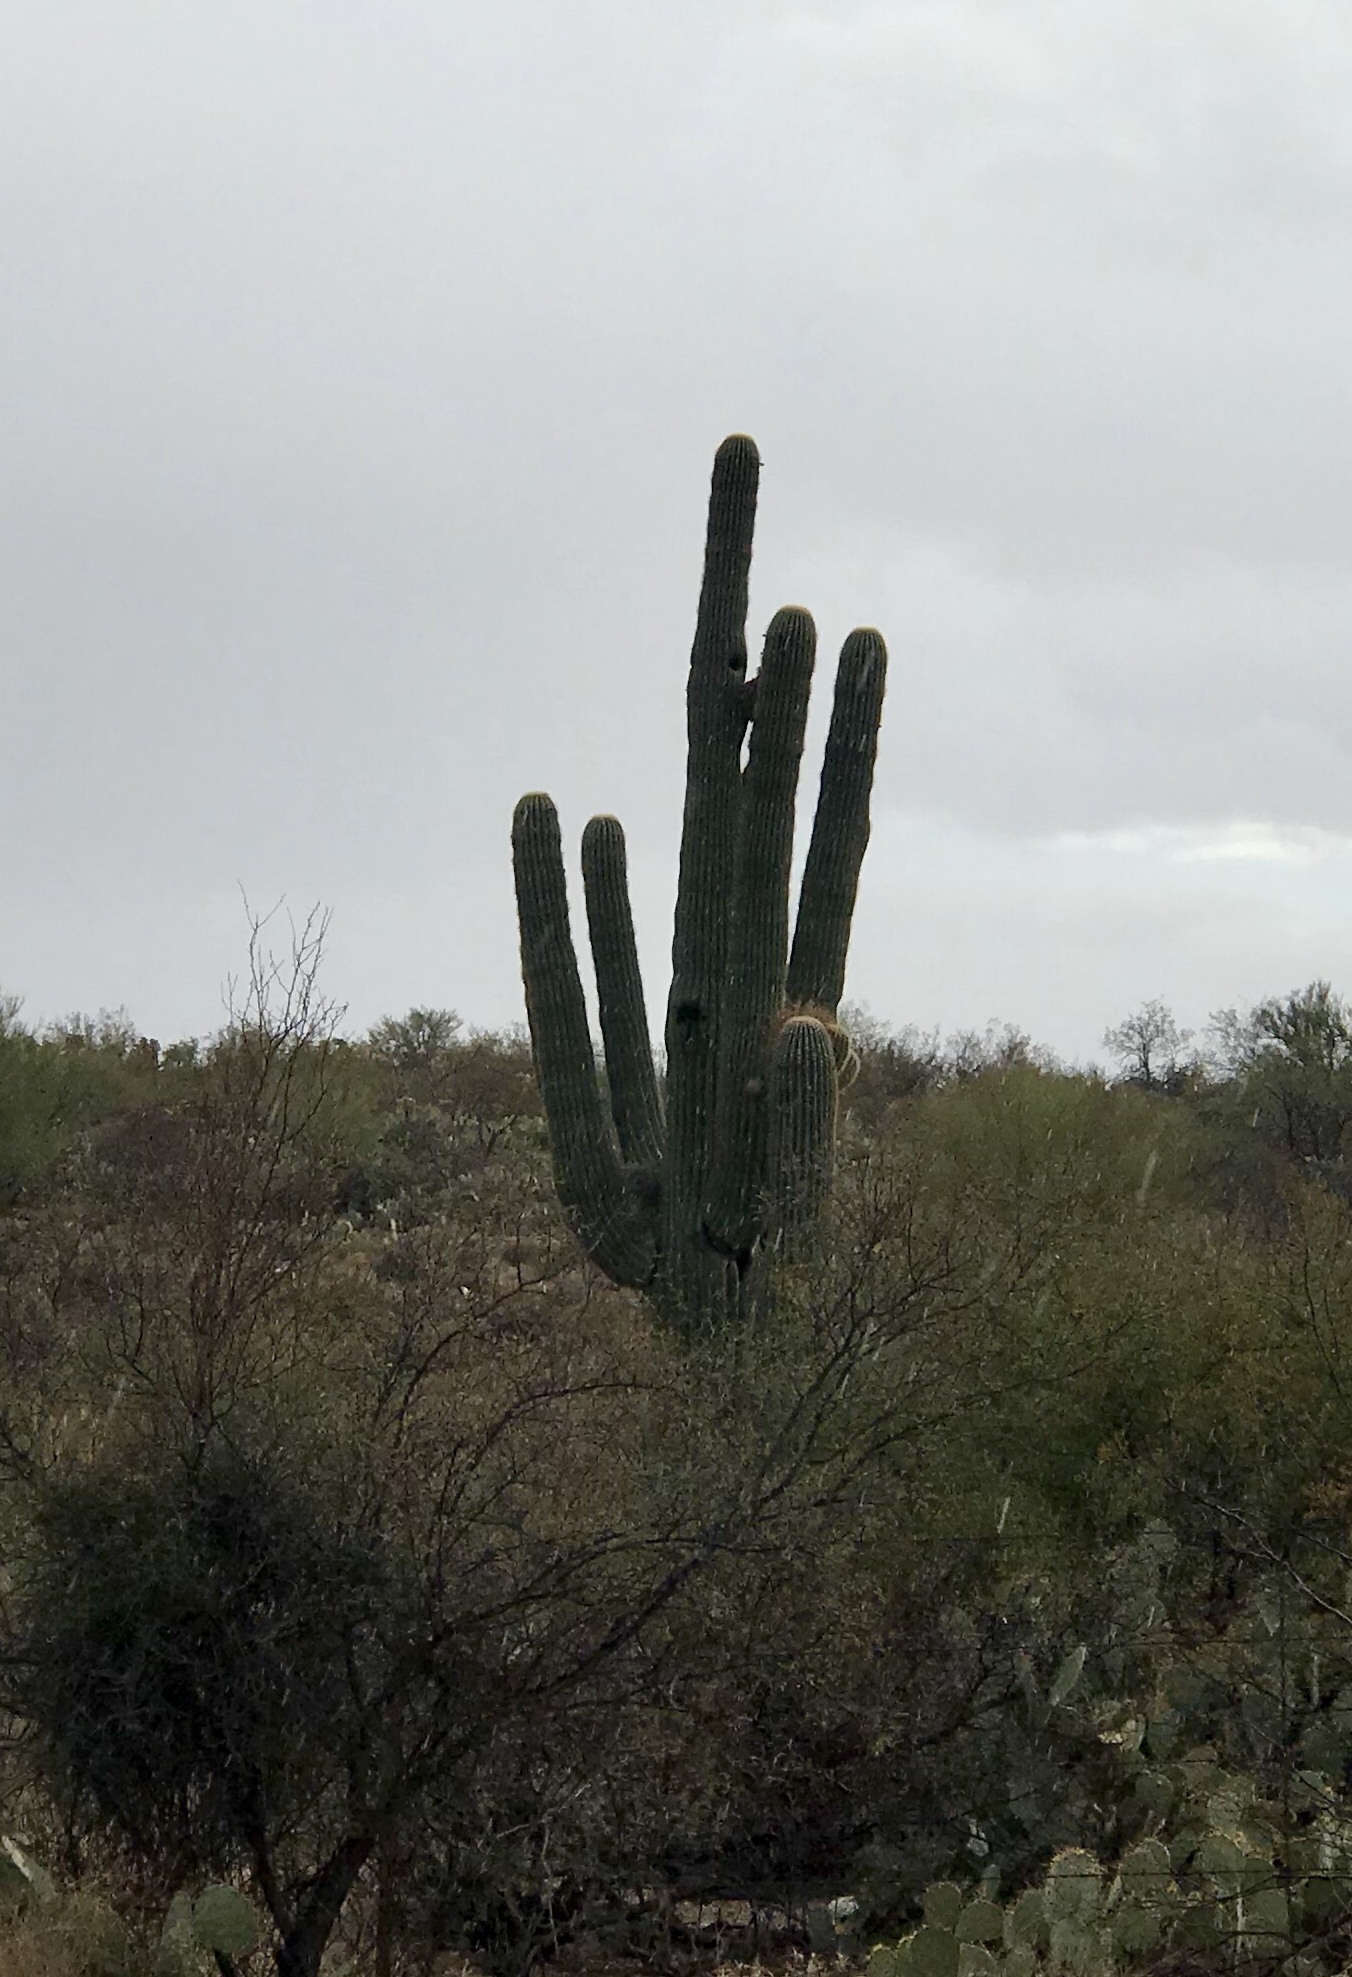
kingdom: Plantae
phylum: Tracheophyta
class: Magnoliopsida
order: Caryophyllales
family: Cactaceae
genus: Carnegiea
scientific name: Carnegiea gigantea
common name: Saguaro
